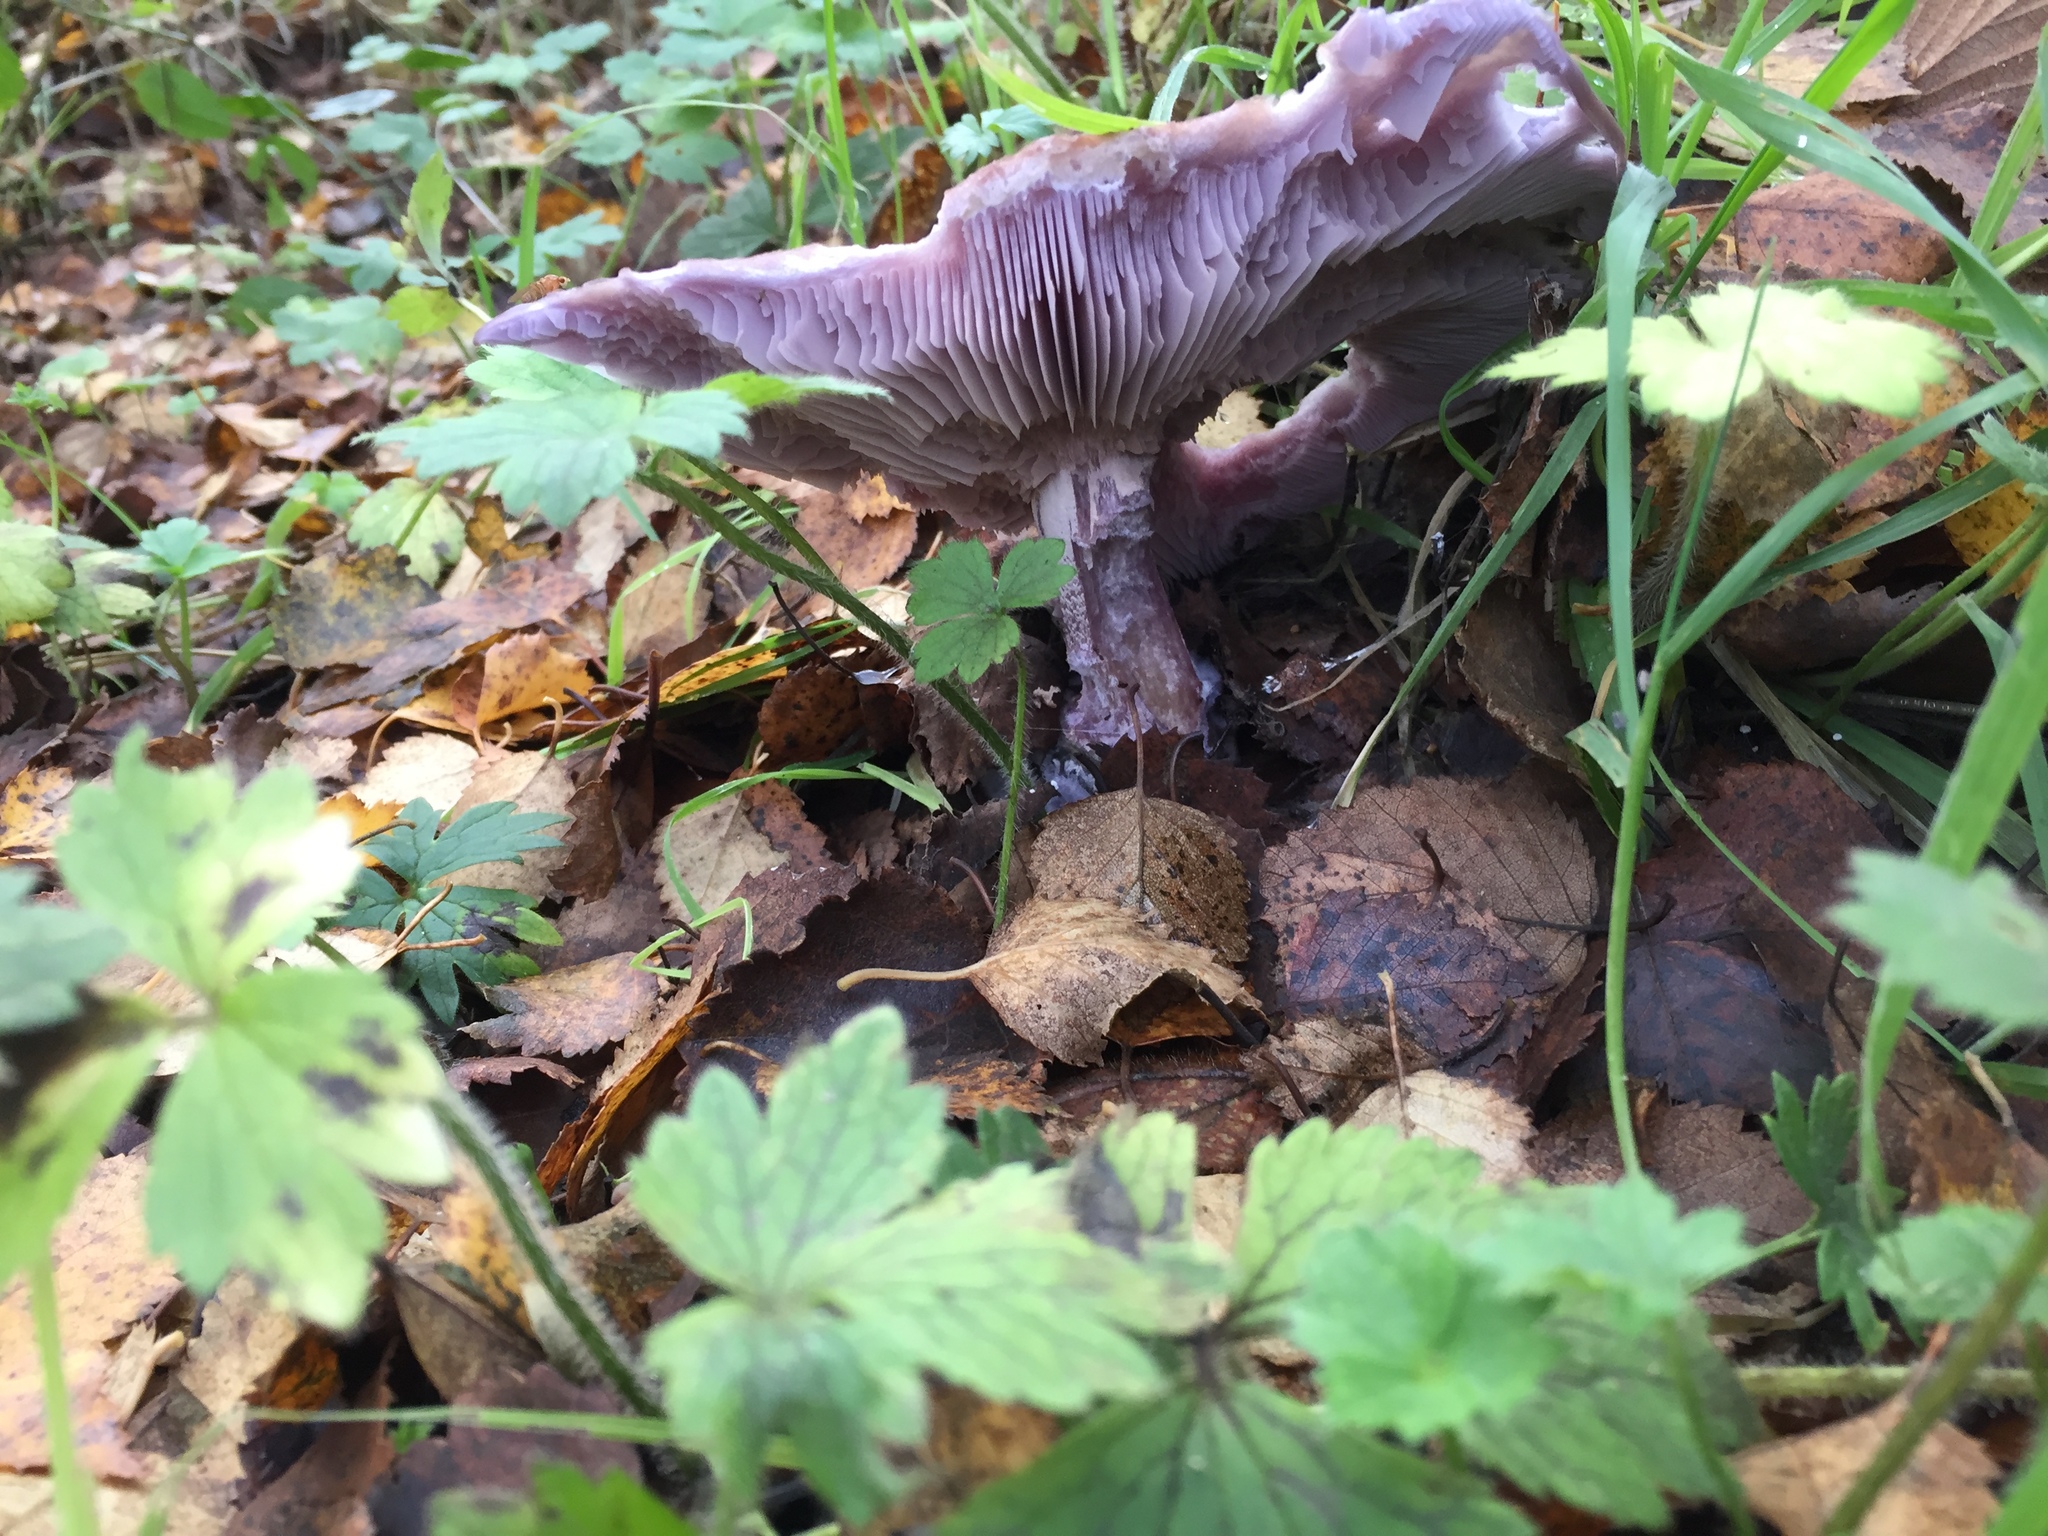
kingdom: Fungi
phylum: Basidiomycota
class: Agaricomycetes
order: Agaricales
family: Tricholomataceae
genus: Collybia
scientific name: Collybia
